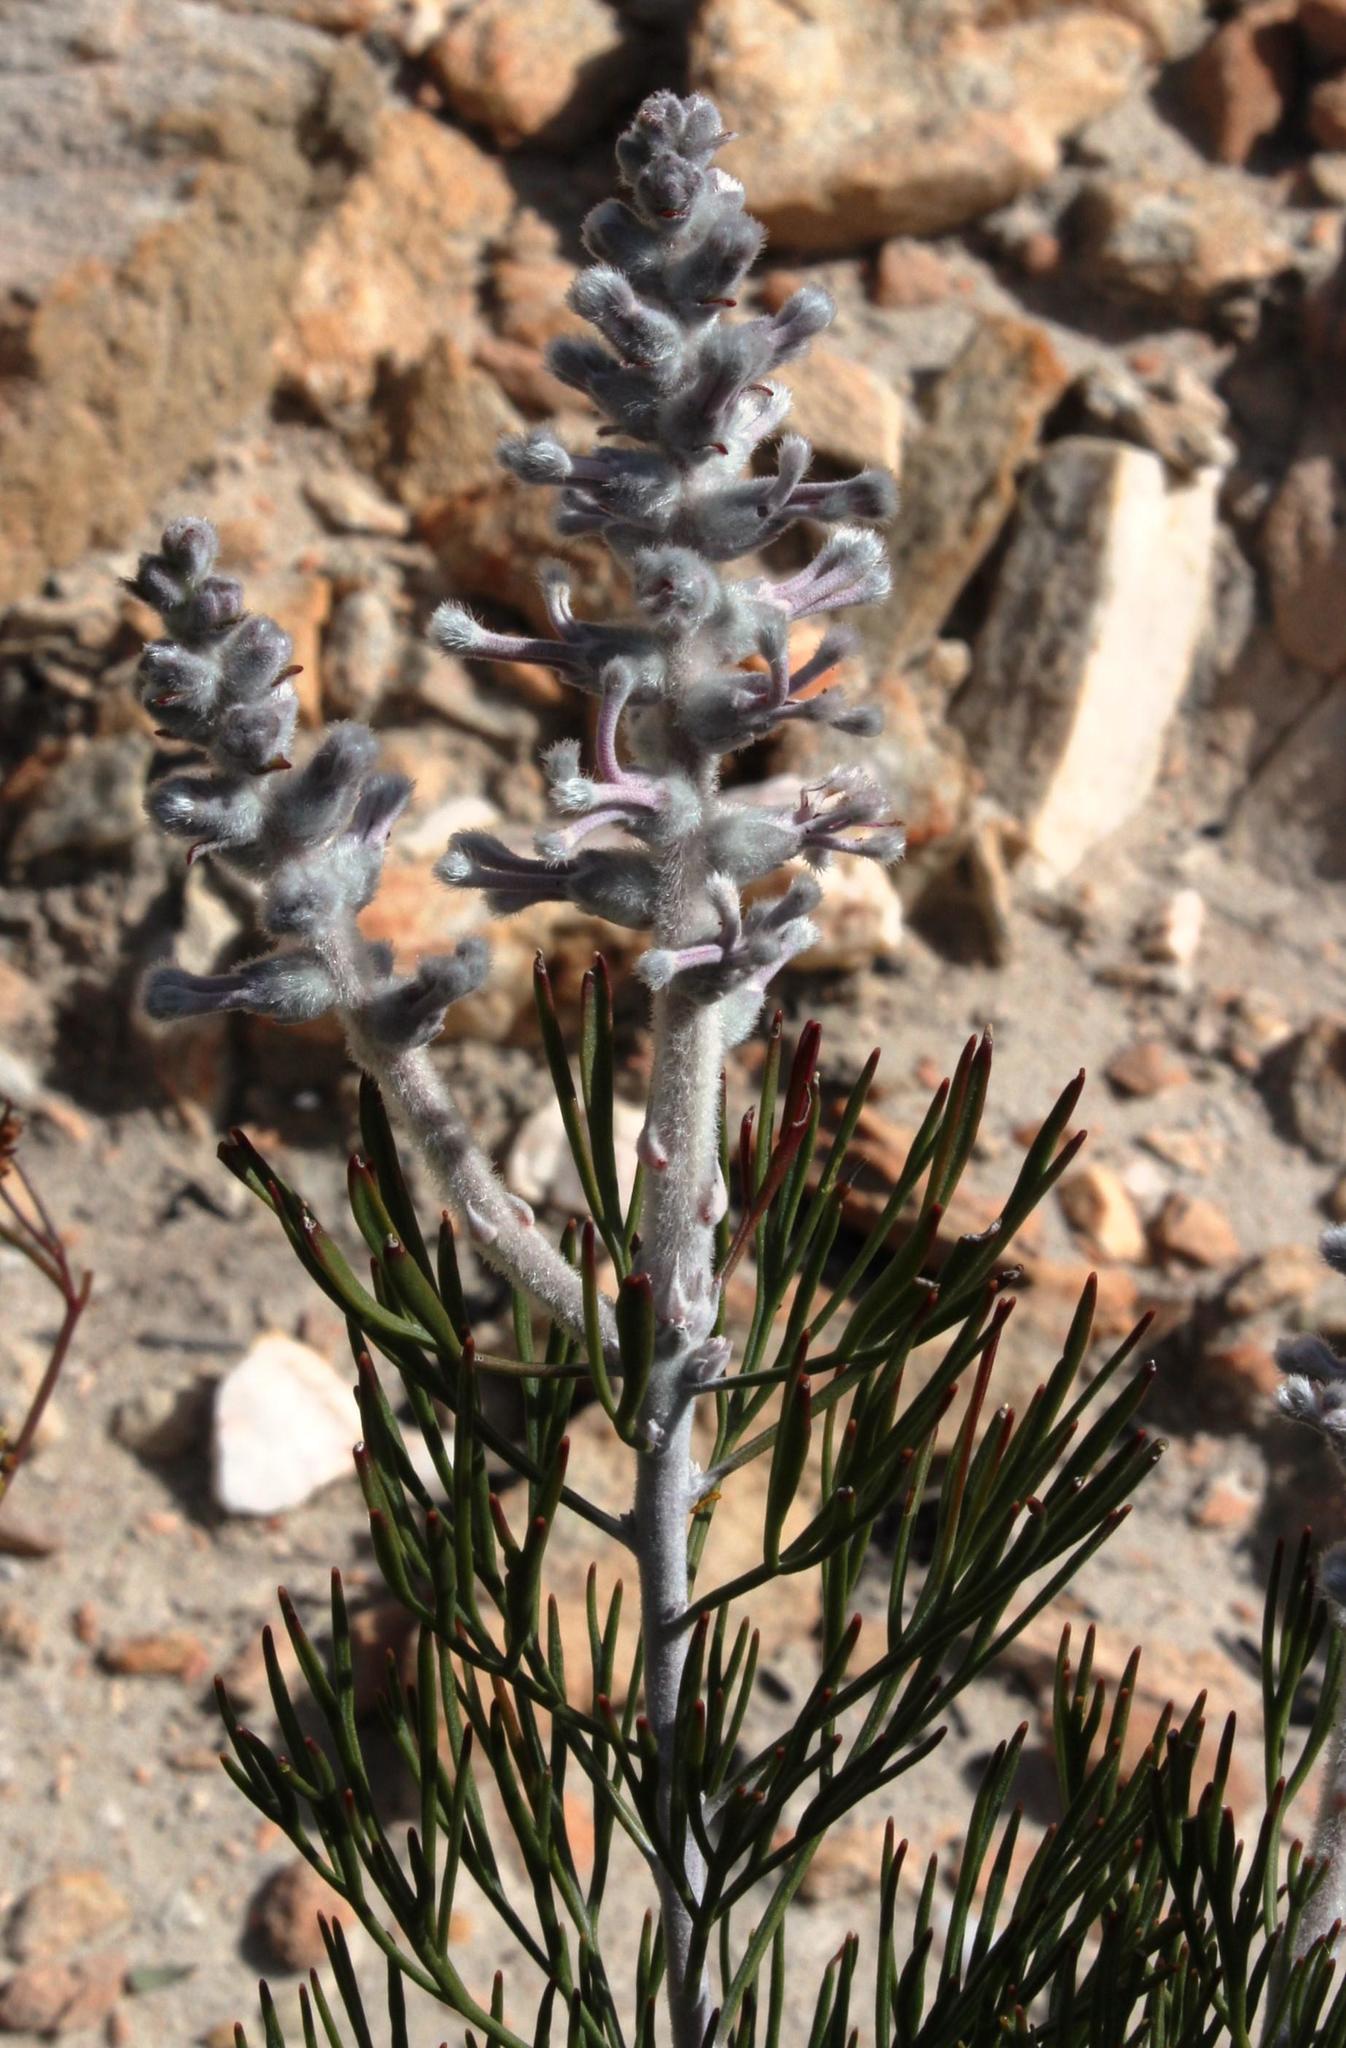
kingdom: Plantae
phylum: Tracheophyta
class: Magnoliopsida
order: Proteales
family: Proteaceae
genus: Paranomus
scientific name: Paranomus dispersus
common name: Long-head sceptre
